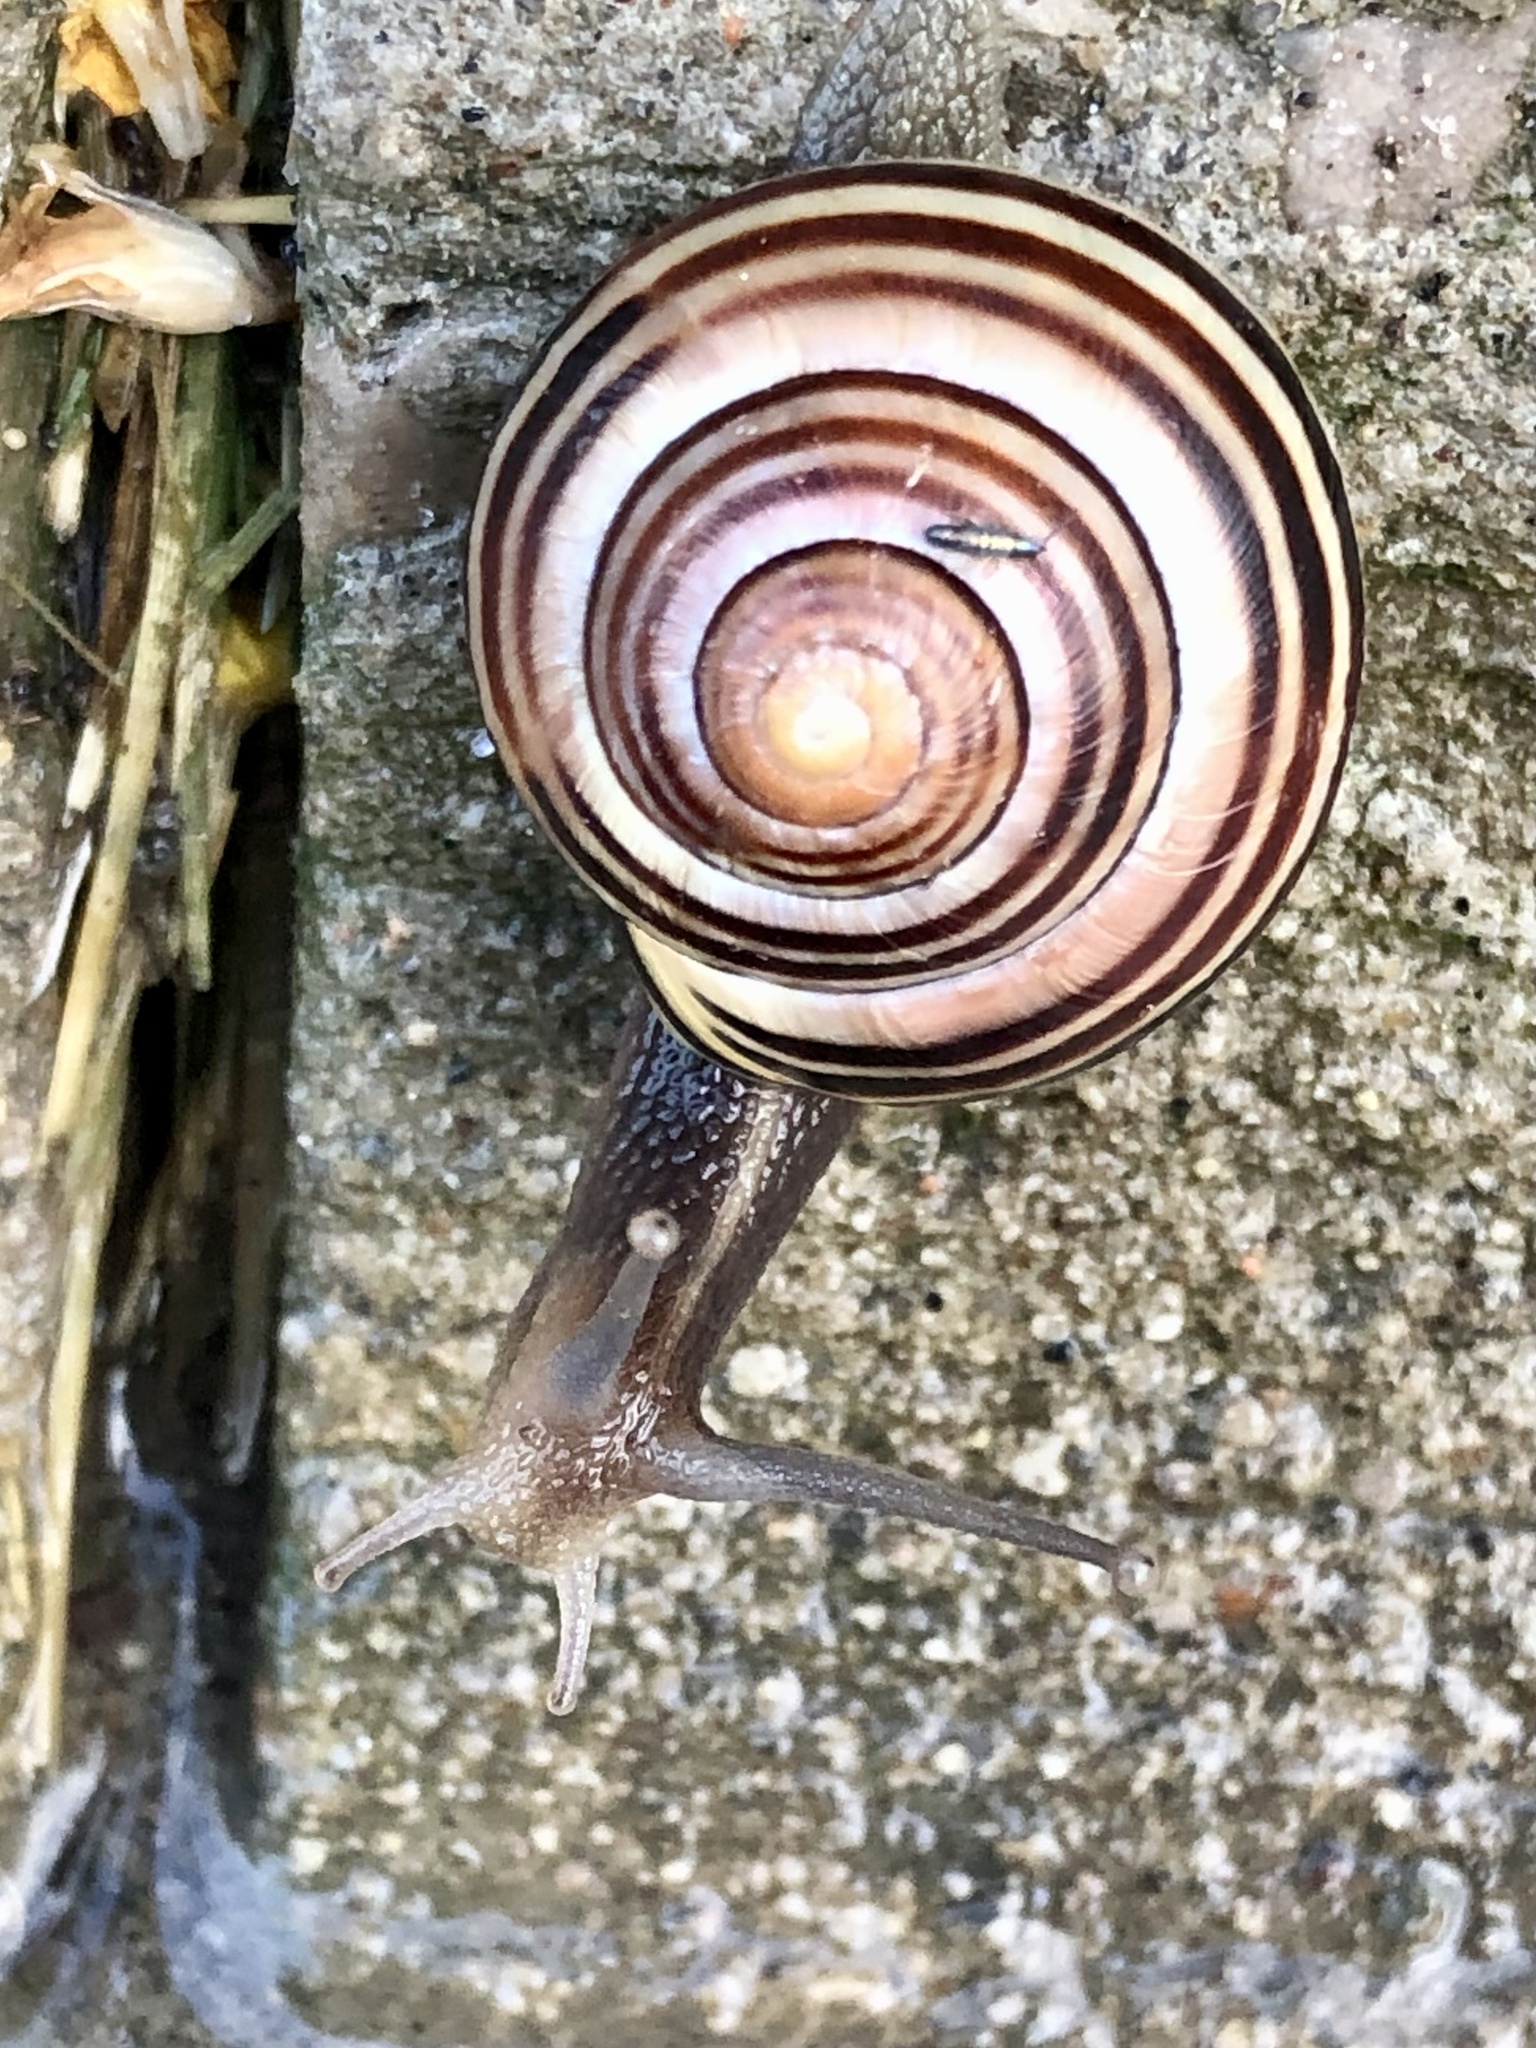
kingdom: Animalia
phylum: Mollusca
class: Gastropoda
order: Stylommatophora
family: Helicidae
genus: Cepaea
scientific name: Cepaea nemoralis
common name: Grovesnail
